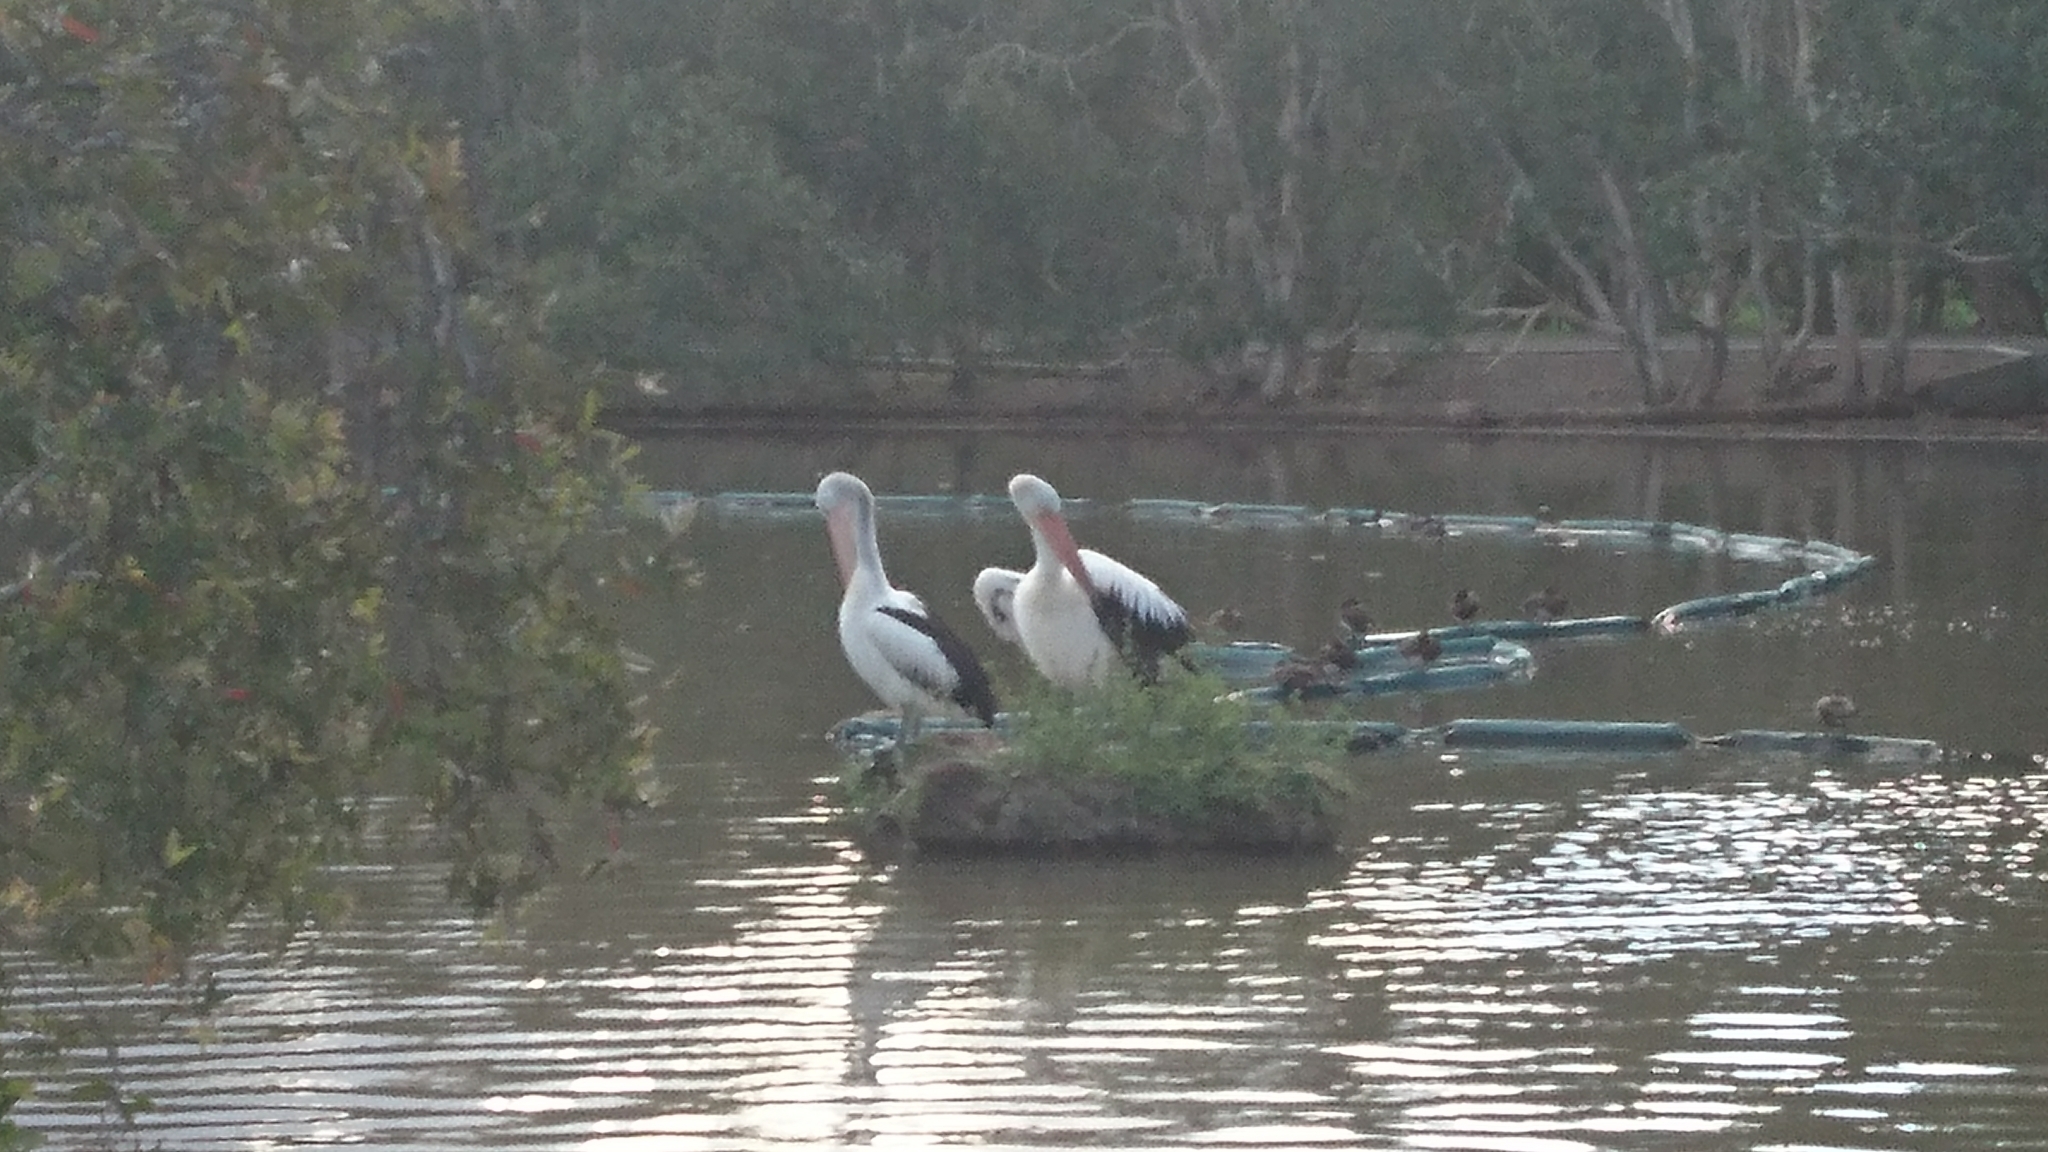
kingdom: Animalia
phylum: Chordata
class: Aves
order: Pelecaniformes
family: Pelecanidae
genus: Pelecanus
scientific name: Pelecanus conspicillatus
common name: Australian pelican
